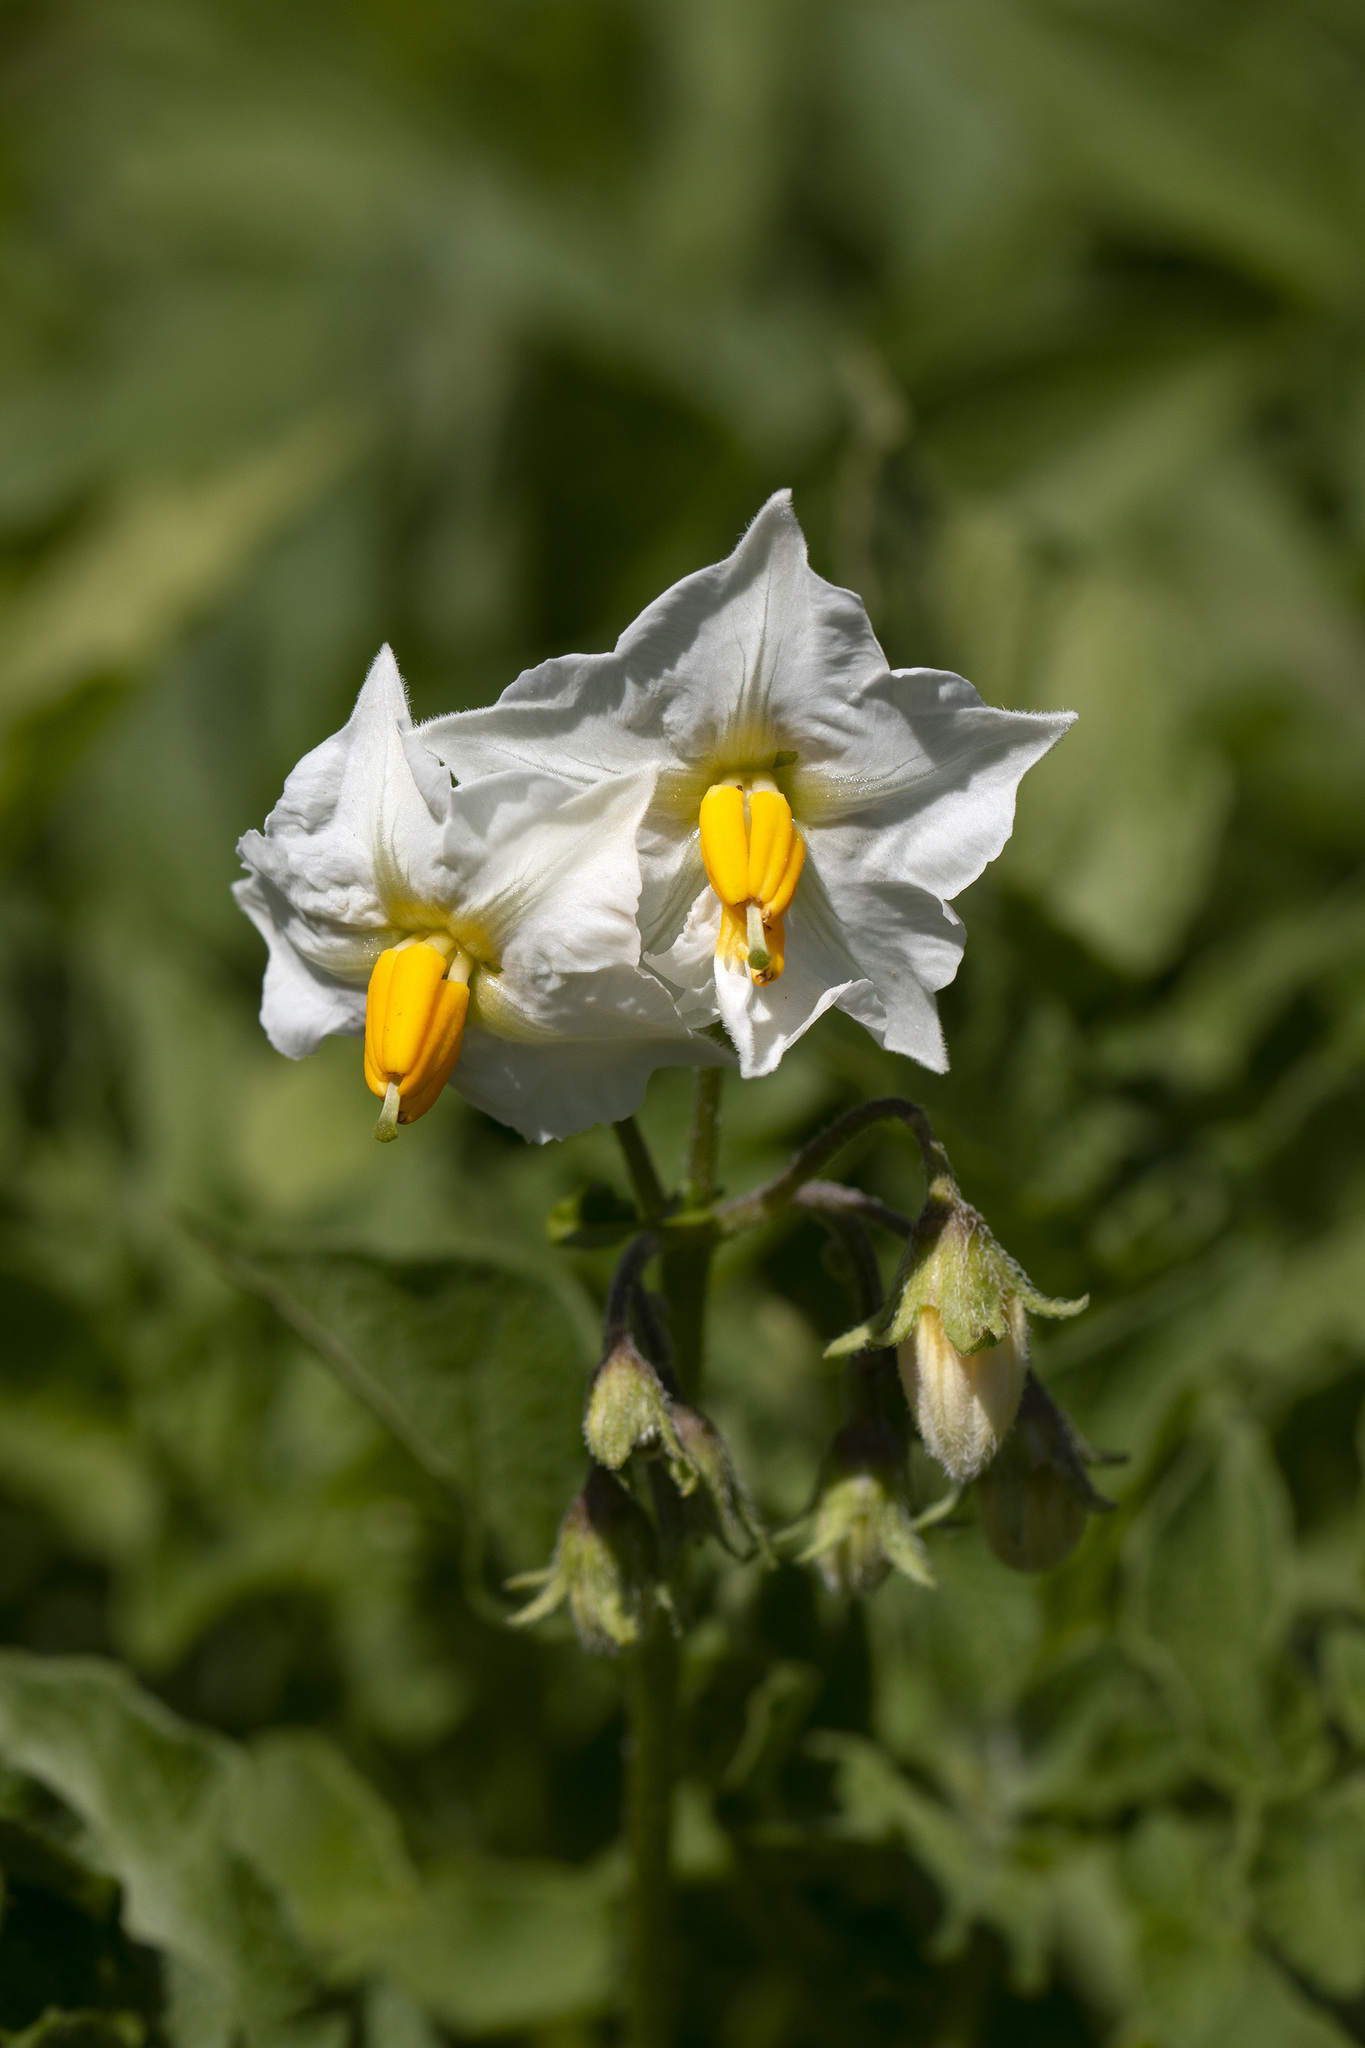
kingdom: Plantae
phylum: Tracheophyta
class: Magnoliopsida
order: Solanales
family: Solanaceae
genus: Solanum
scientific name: Solanum tuberosum
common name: Potato
